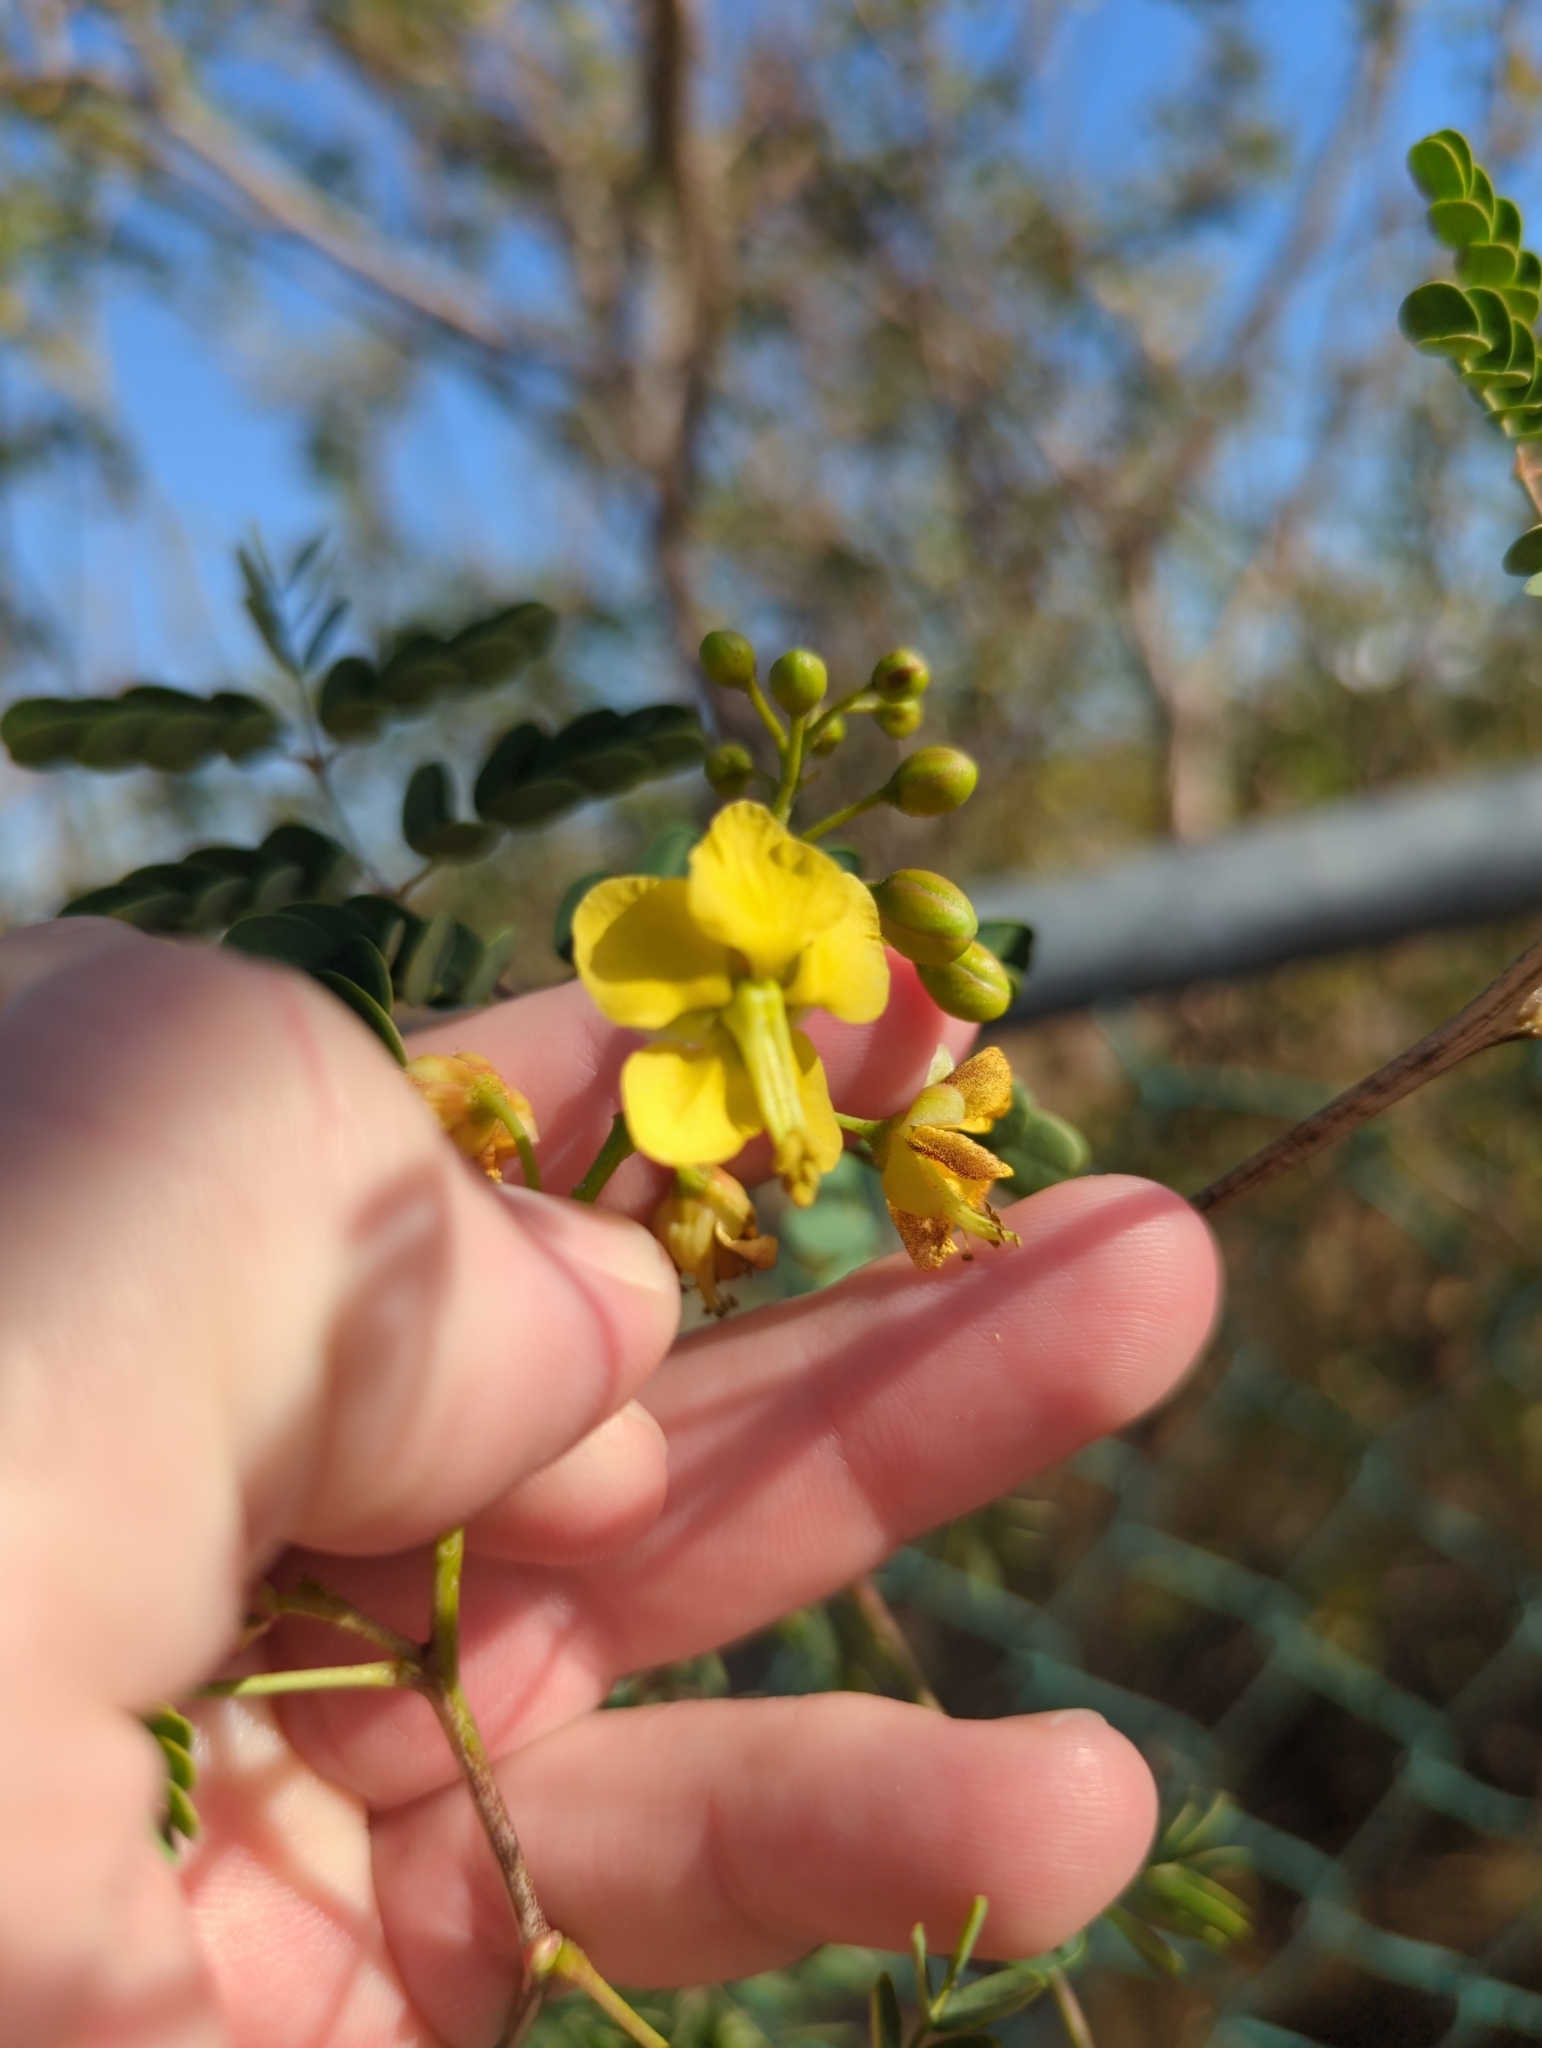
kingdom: Plantae
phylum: Tracheophyta
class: Magnoliopsida
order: Fabales
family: Fabaceae
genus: Erythrostemon
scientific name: Erythrostemon pannosus
